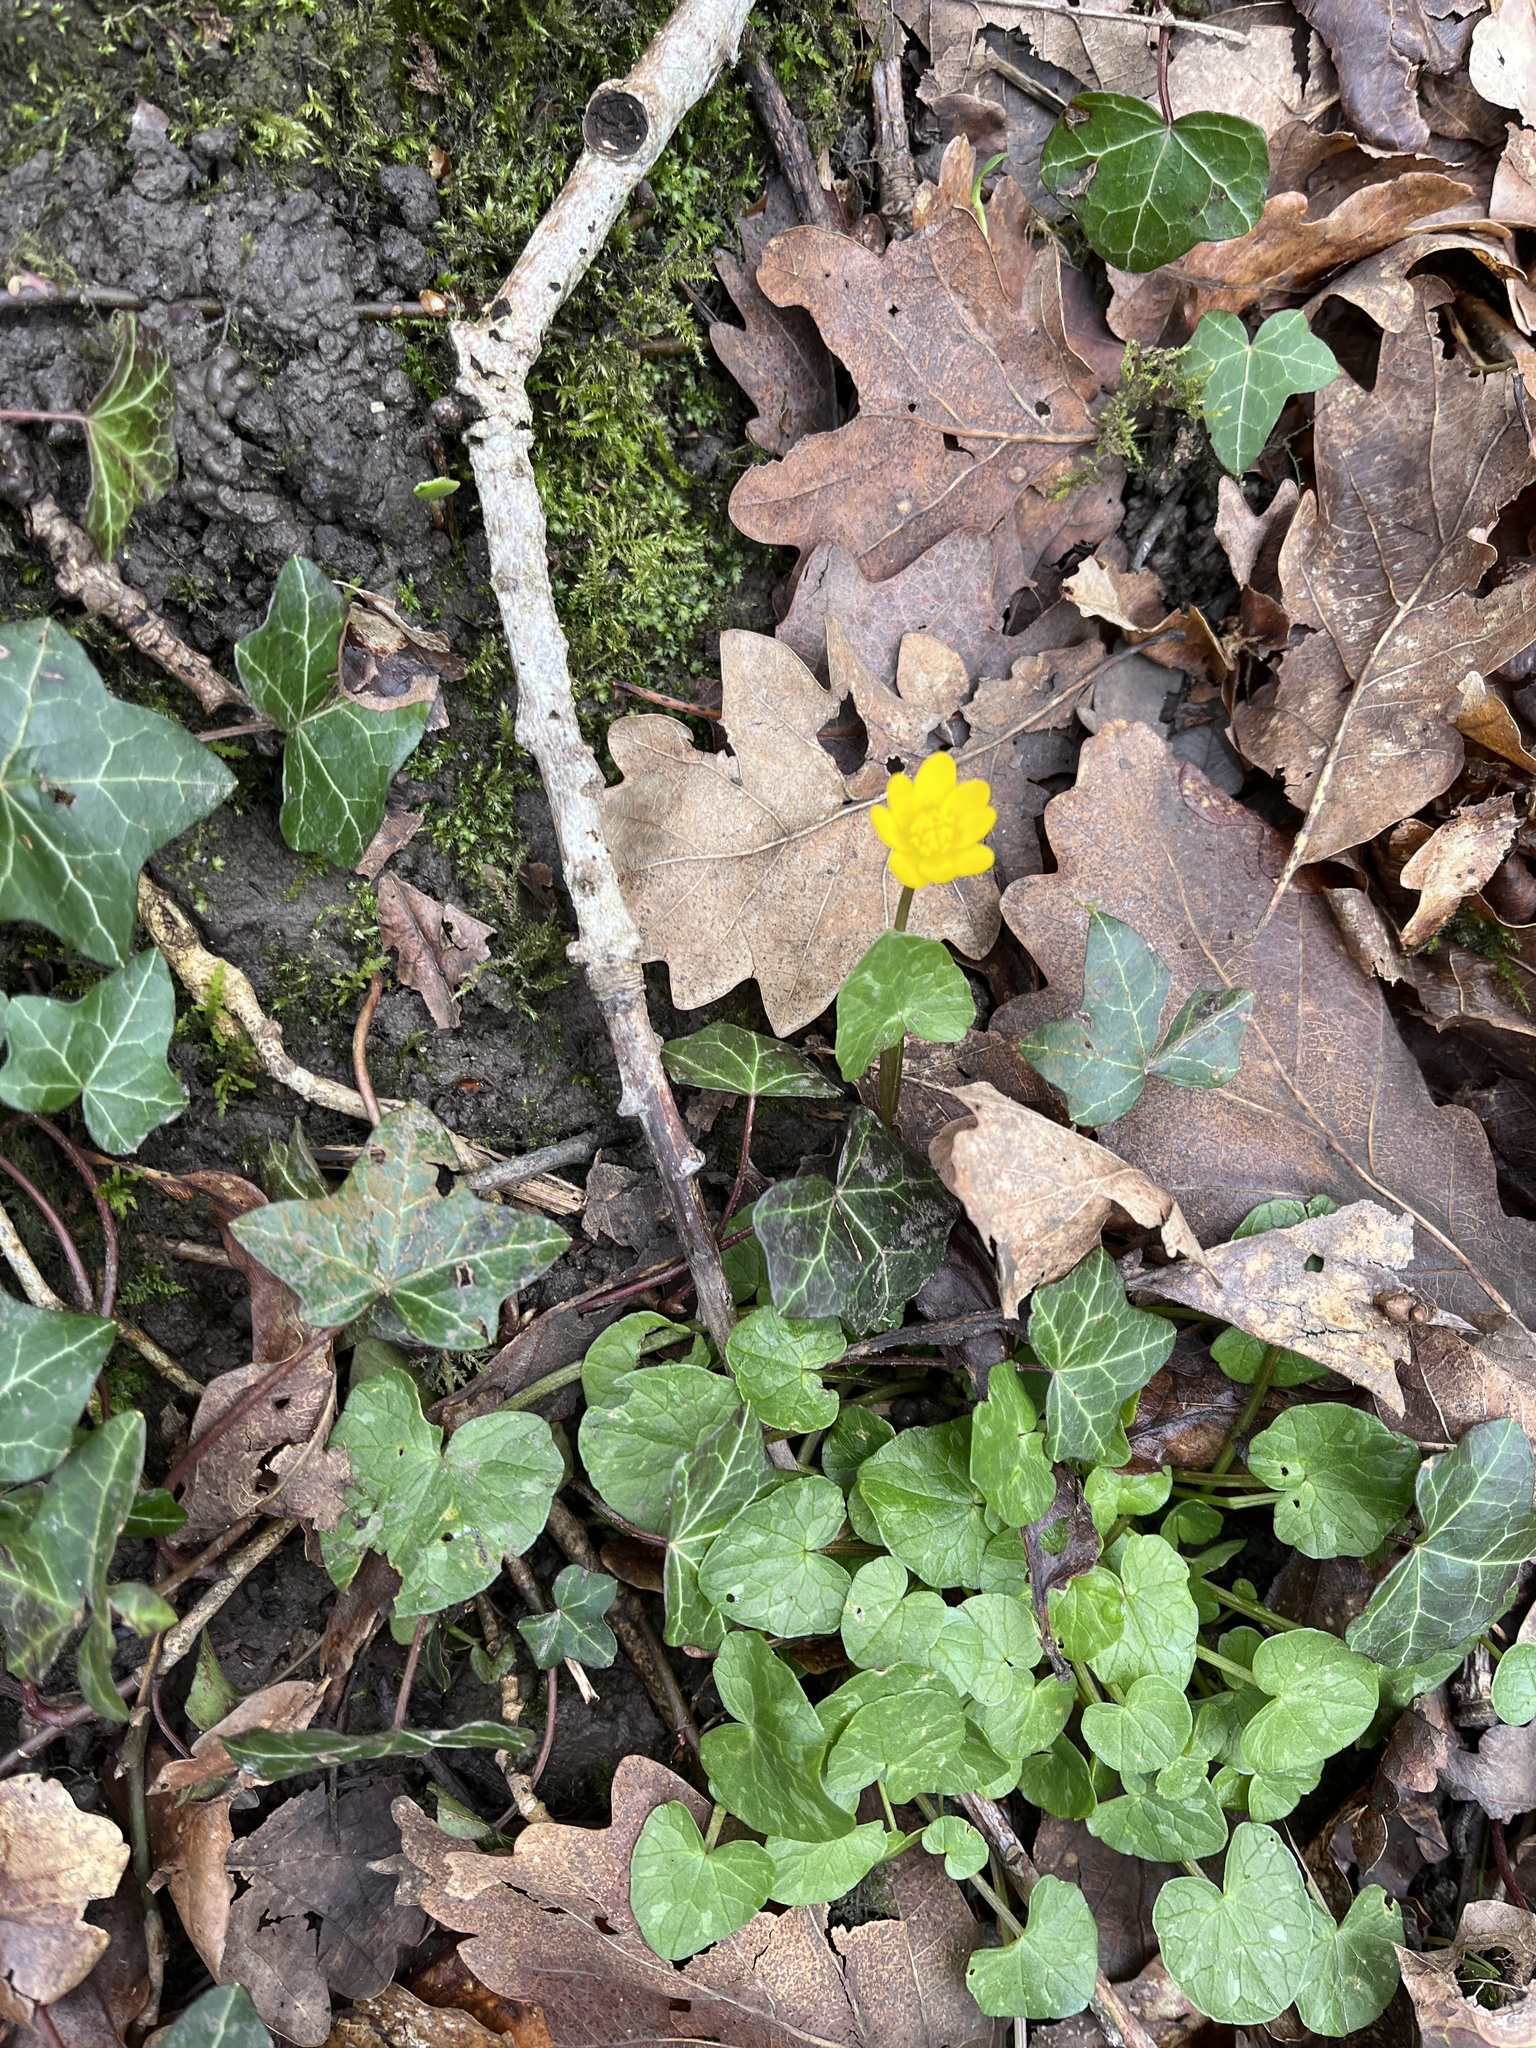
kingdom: Plantae
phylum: Tracheophyta
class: Magnoliopsida
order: Ranunculales
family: Ranunculaceae
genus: Ficaria
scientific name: Ficaria verna
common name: Lesser celandine
